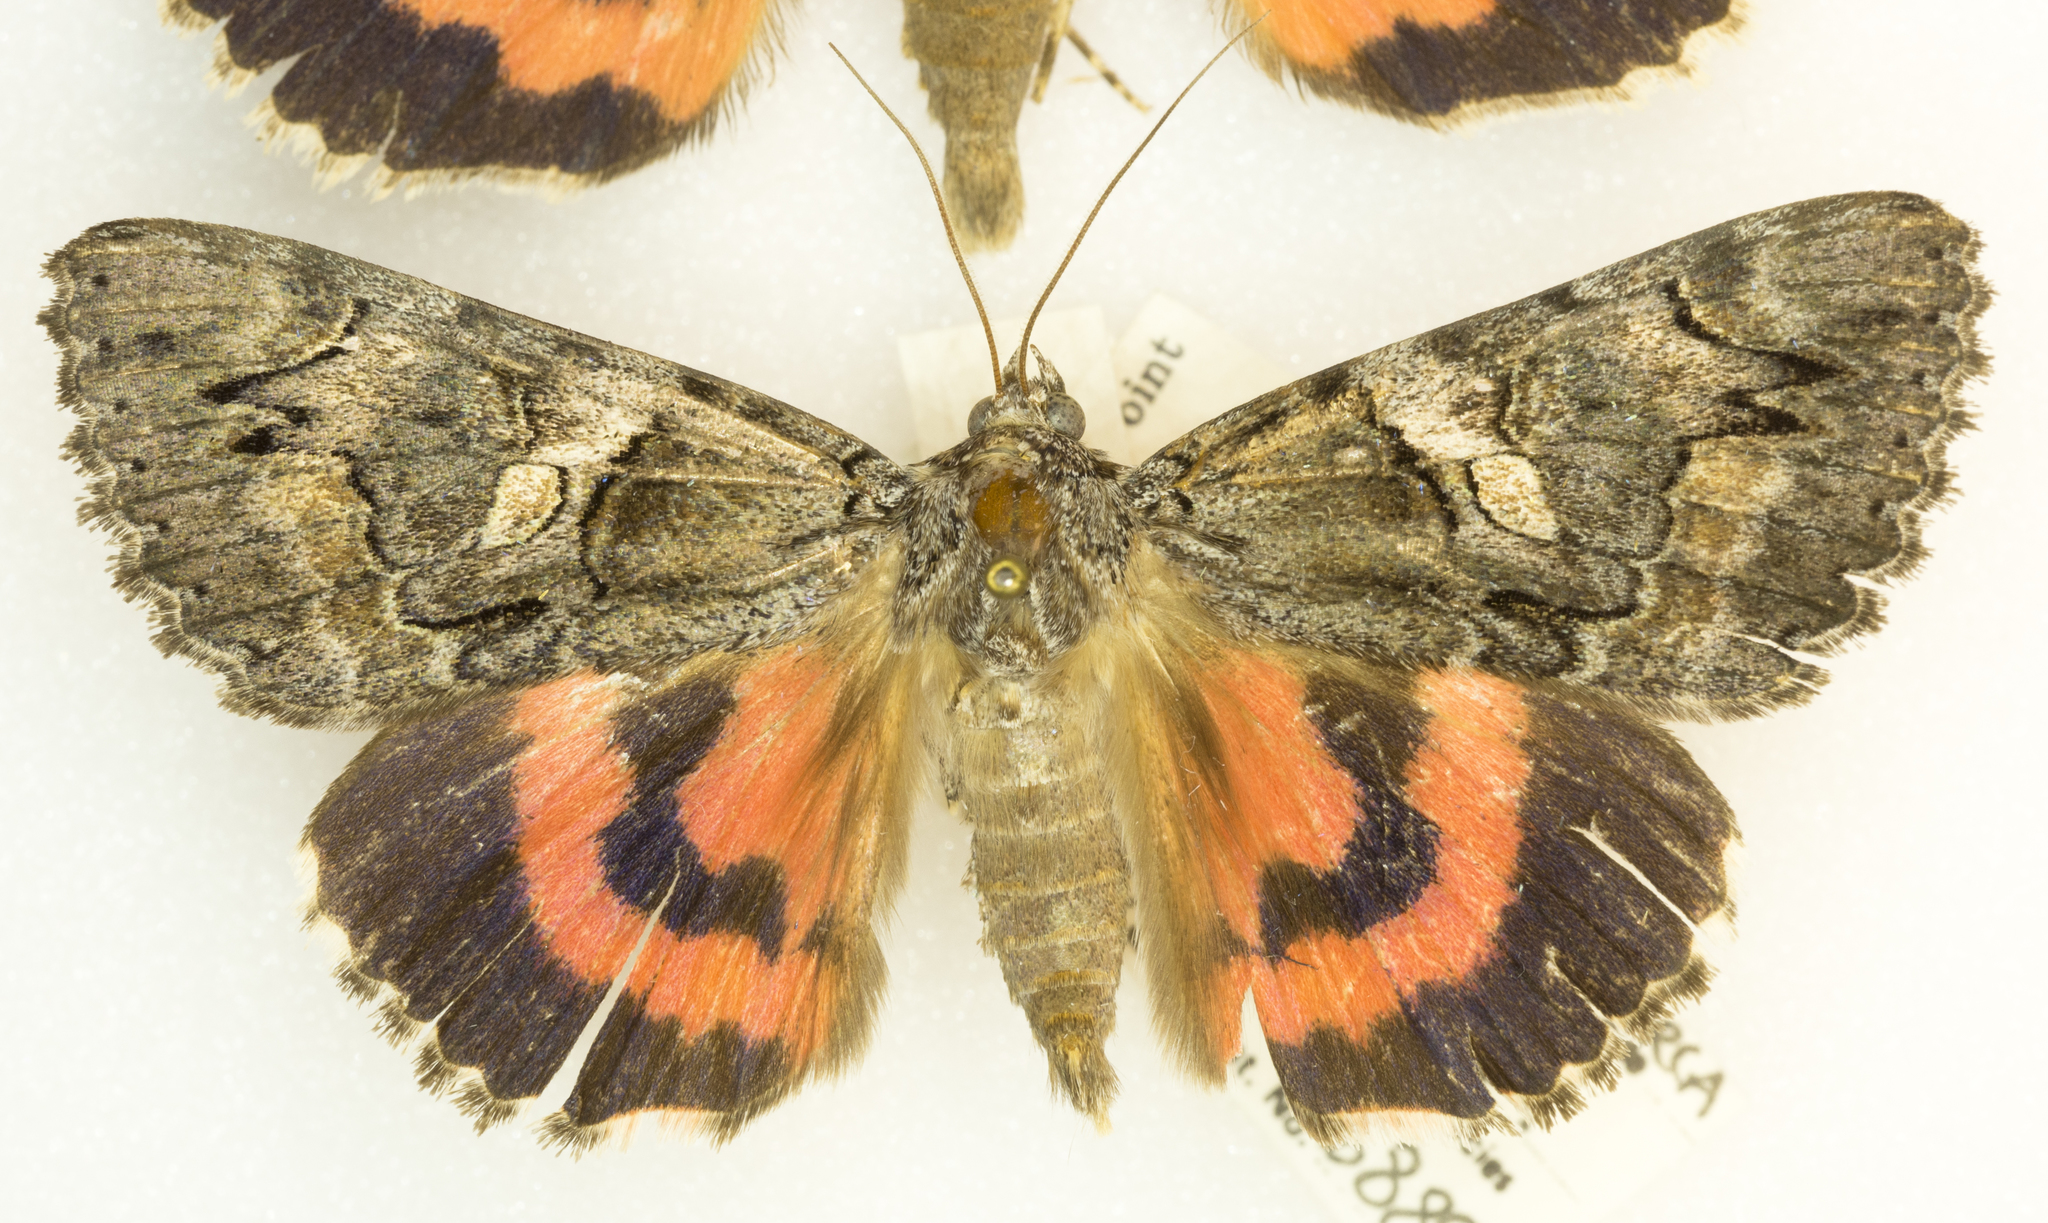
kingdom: Animalia
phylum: Arthropoda
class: Insecta
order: Lepidoptera
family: Erebidae
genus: Catocala
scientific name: Catocala ophelia
